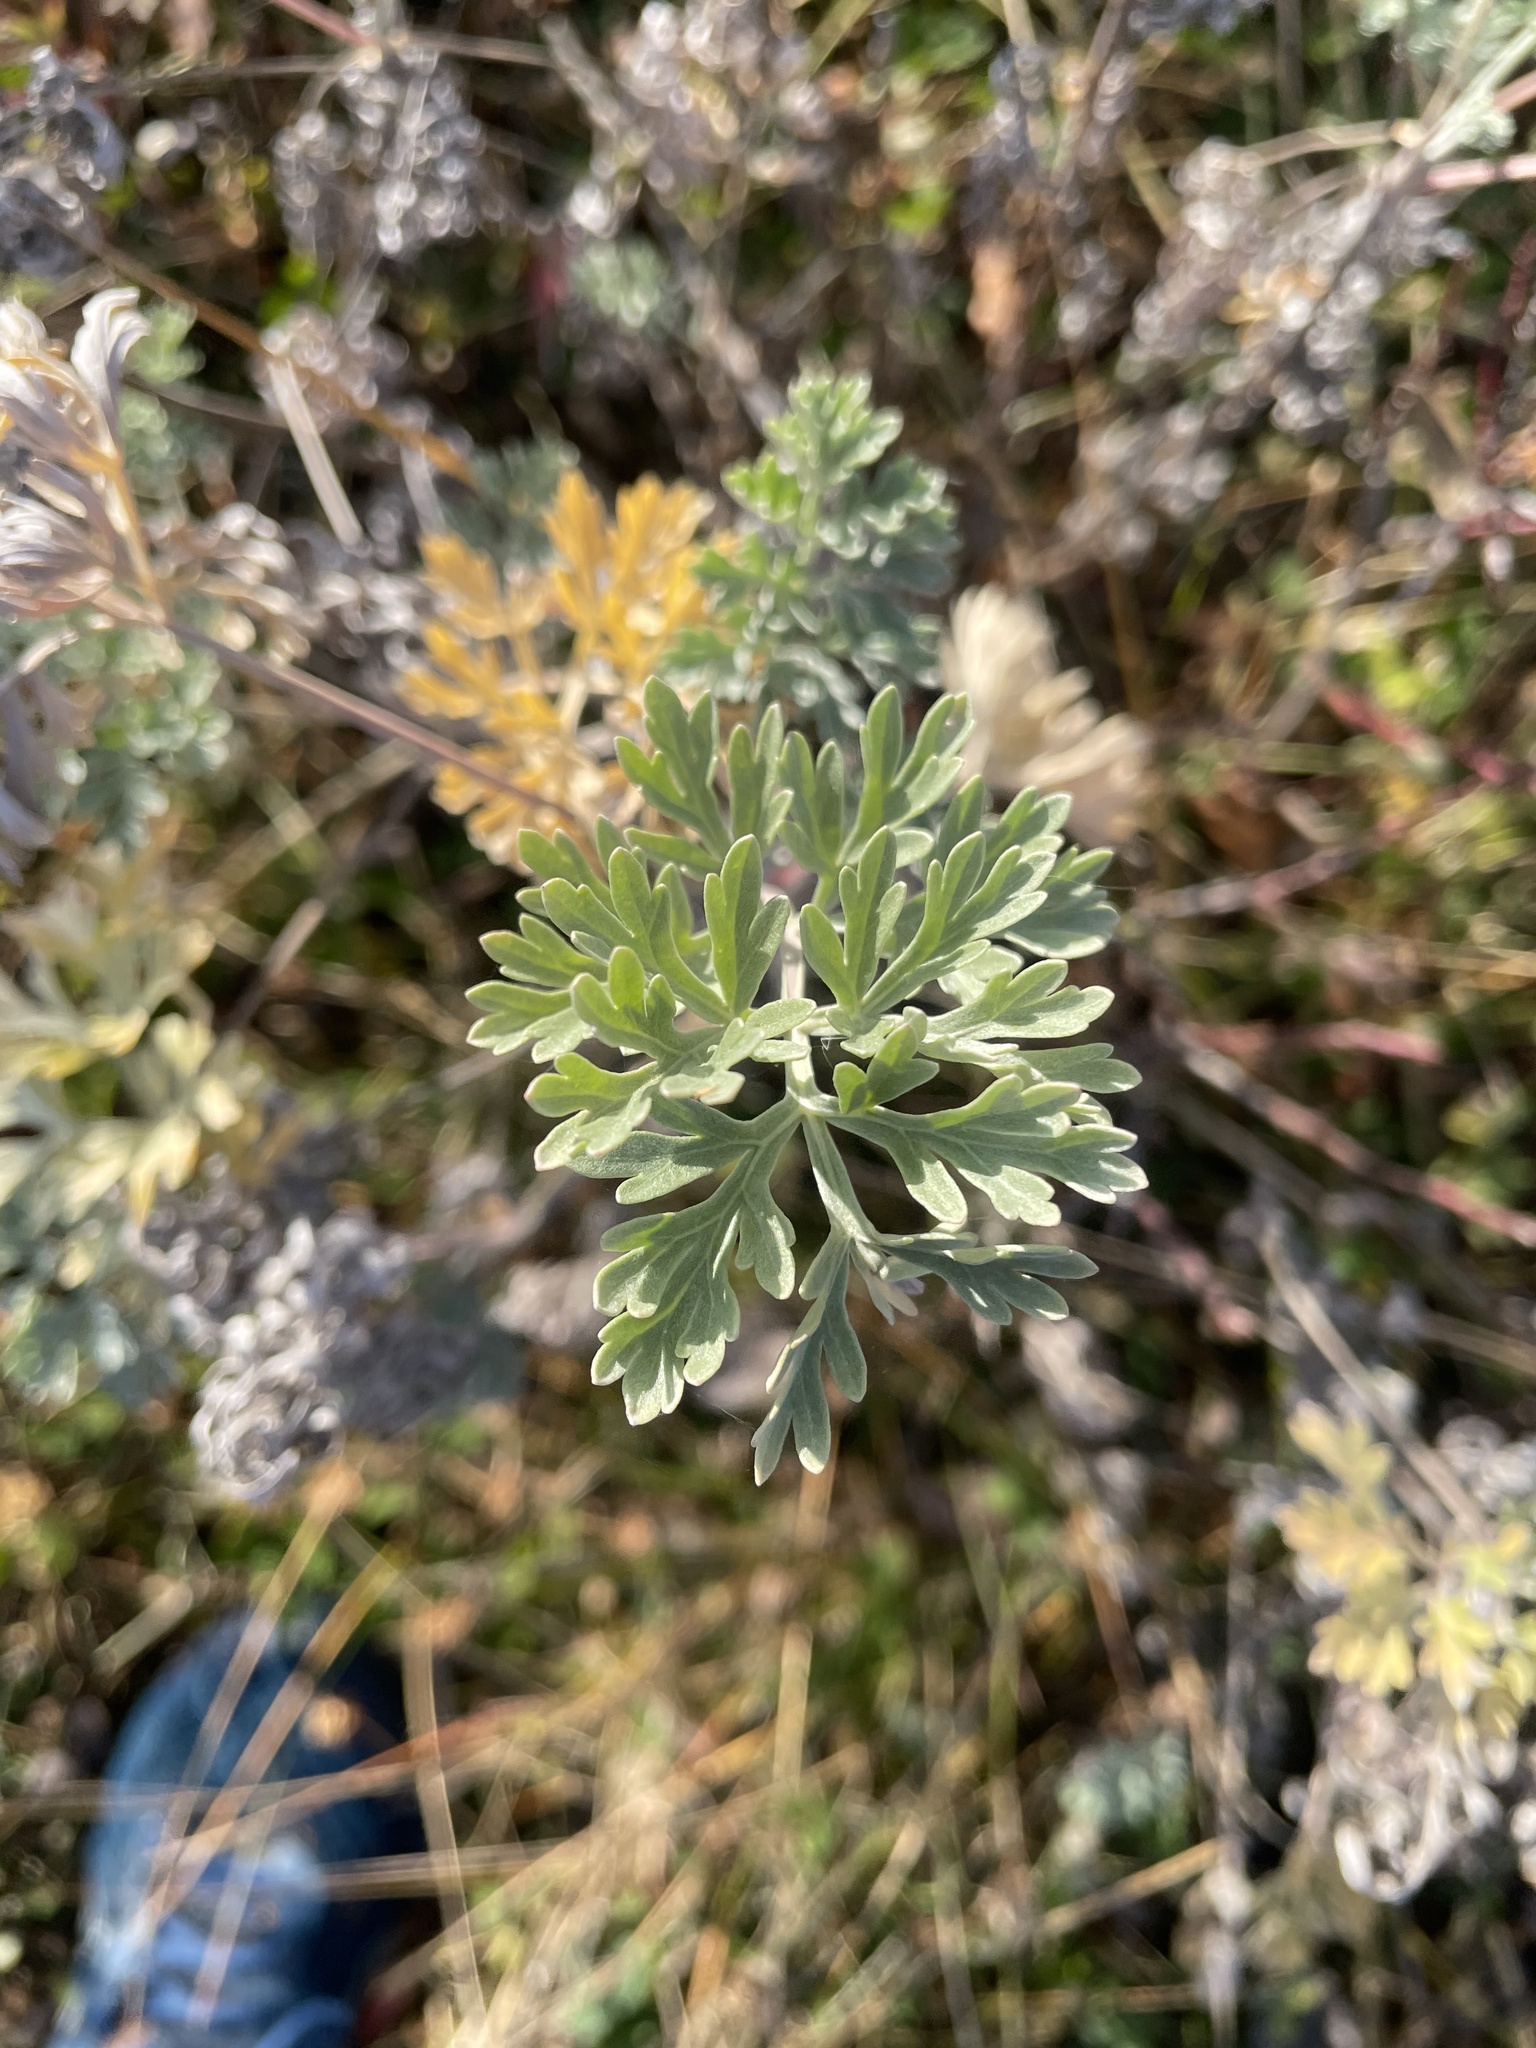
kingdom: Plantae
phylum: Tracheophyta
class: Magnoliopsida
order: Asterales
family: Asteraceae
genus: Artemisia
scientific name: Artemisia absinthium
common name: Wormwood
